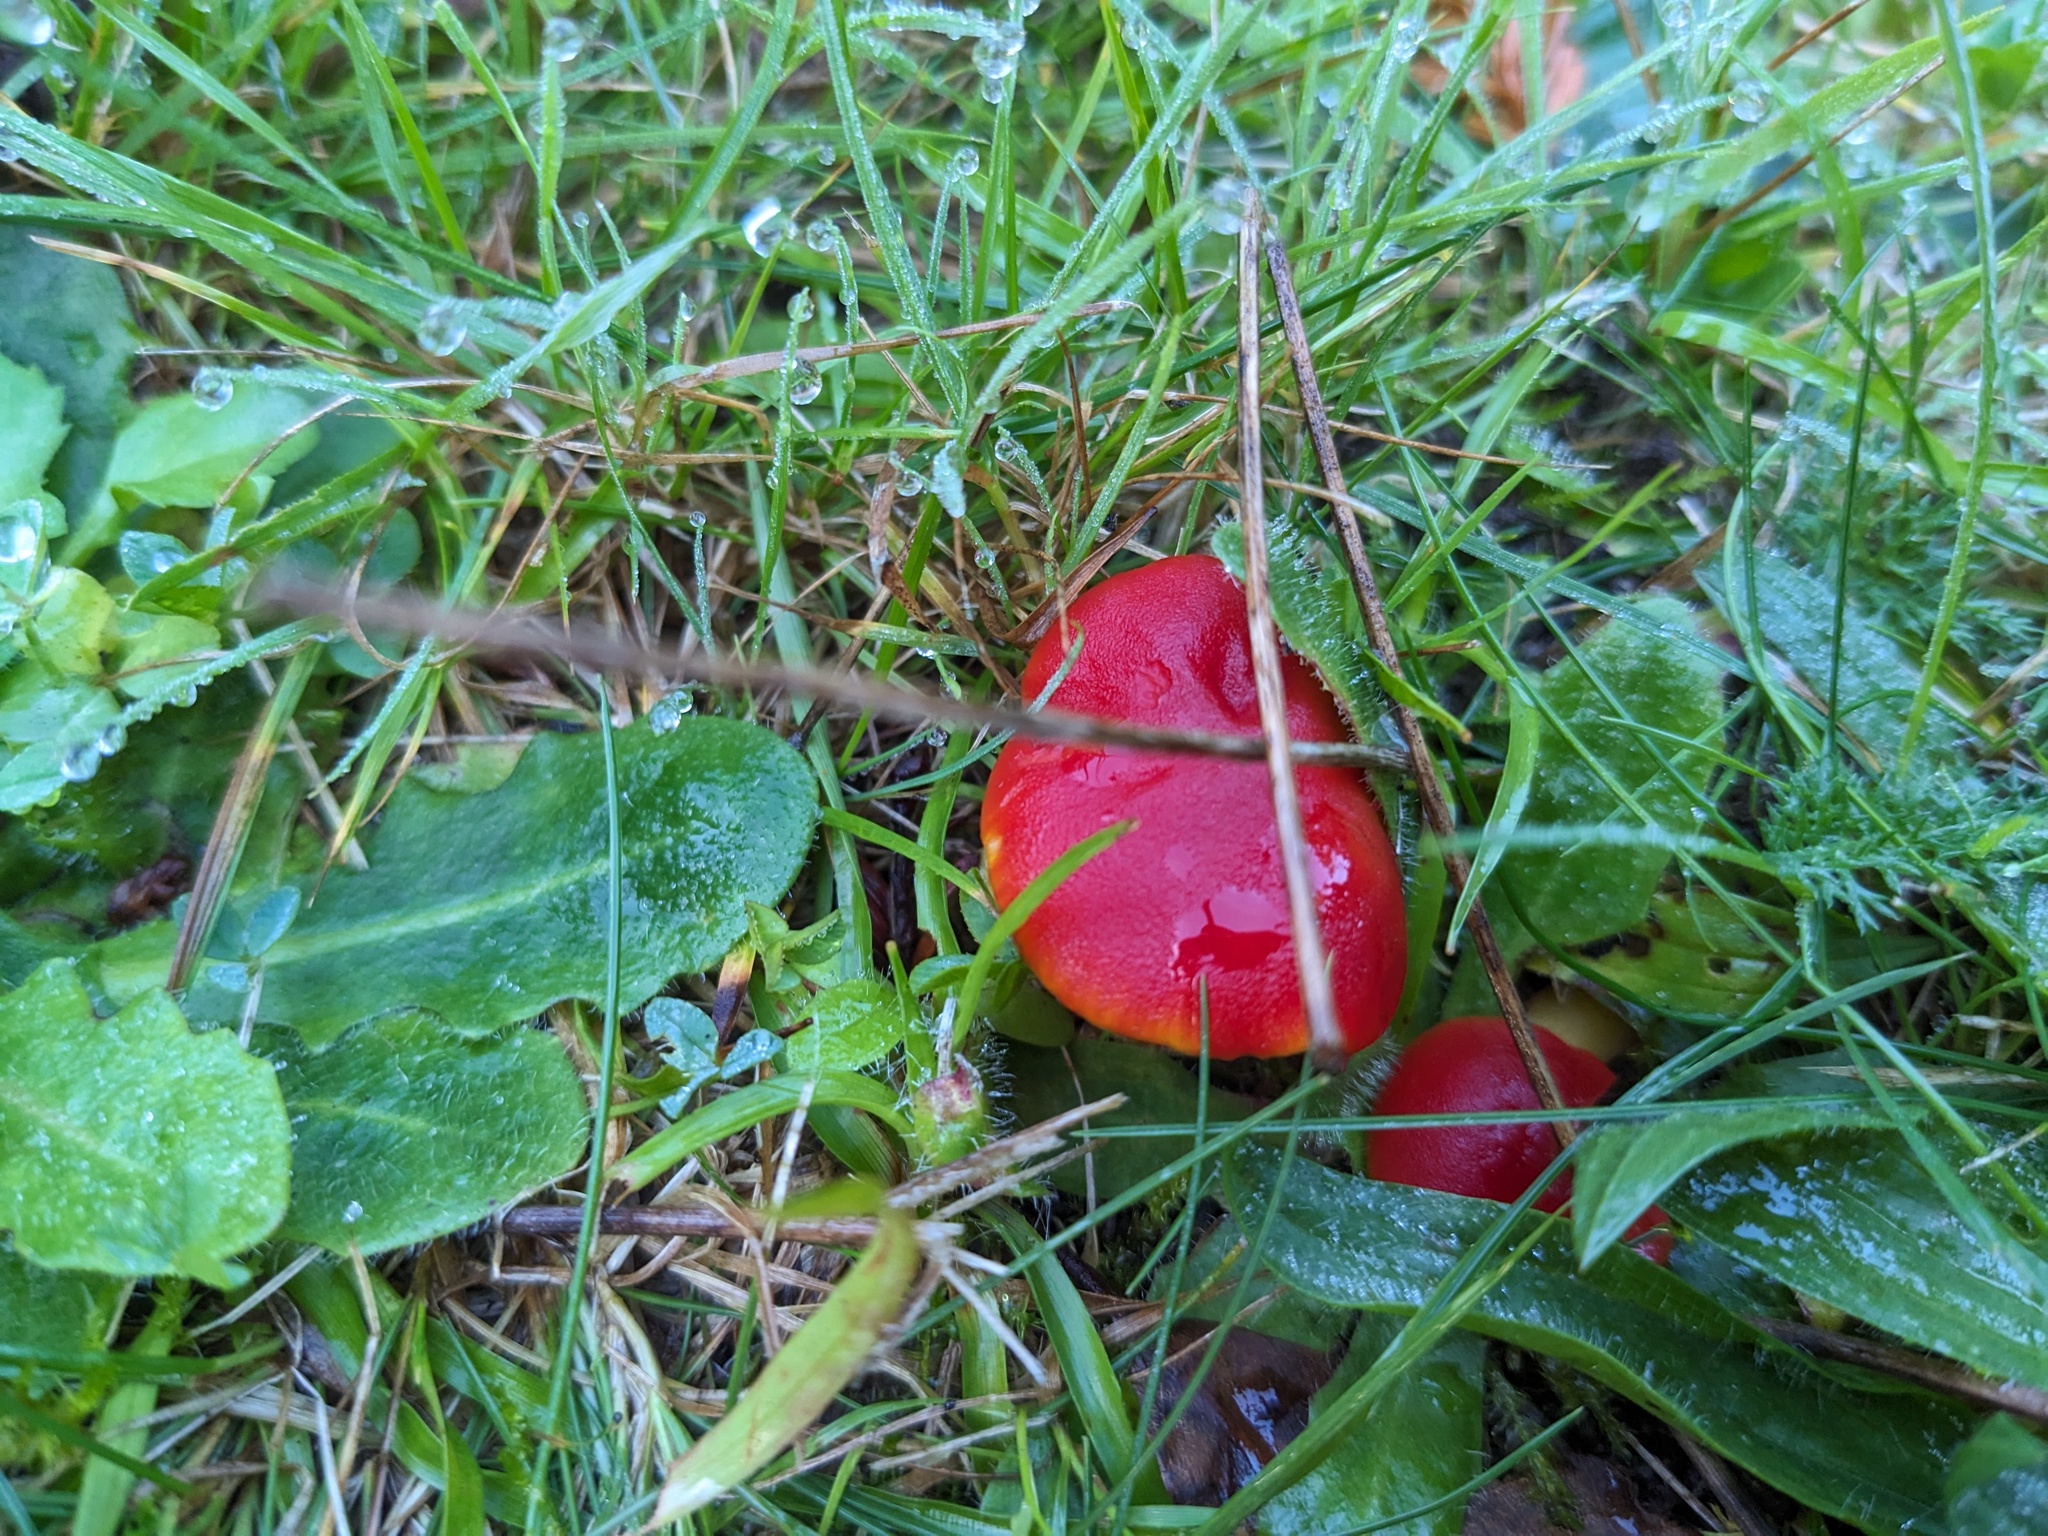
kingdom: Fungi
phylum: Basidiomycota
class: Agaricomycetes
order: Agaricales
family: Hygrophoraceae
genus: Hygrocybe
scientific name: Hygrocybe coccinea
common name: Scarlet hood
